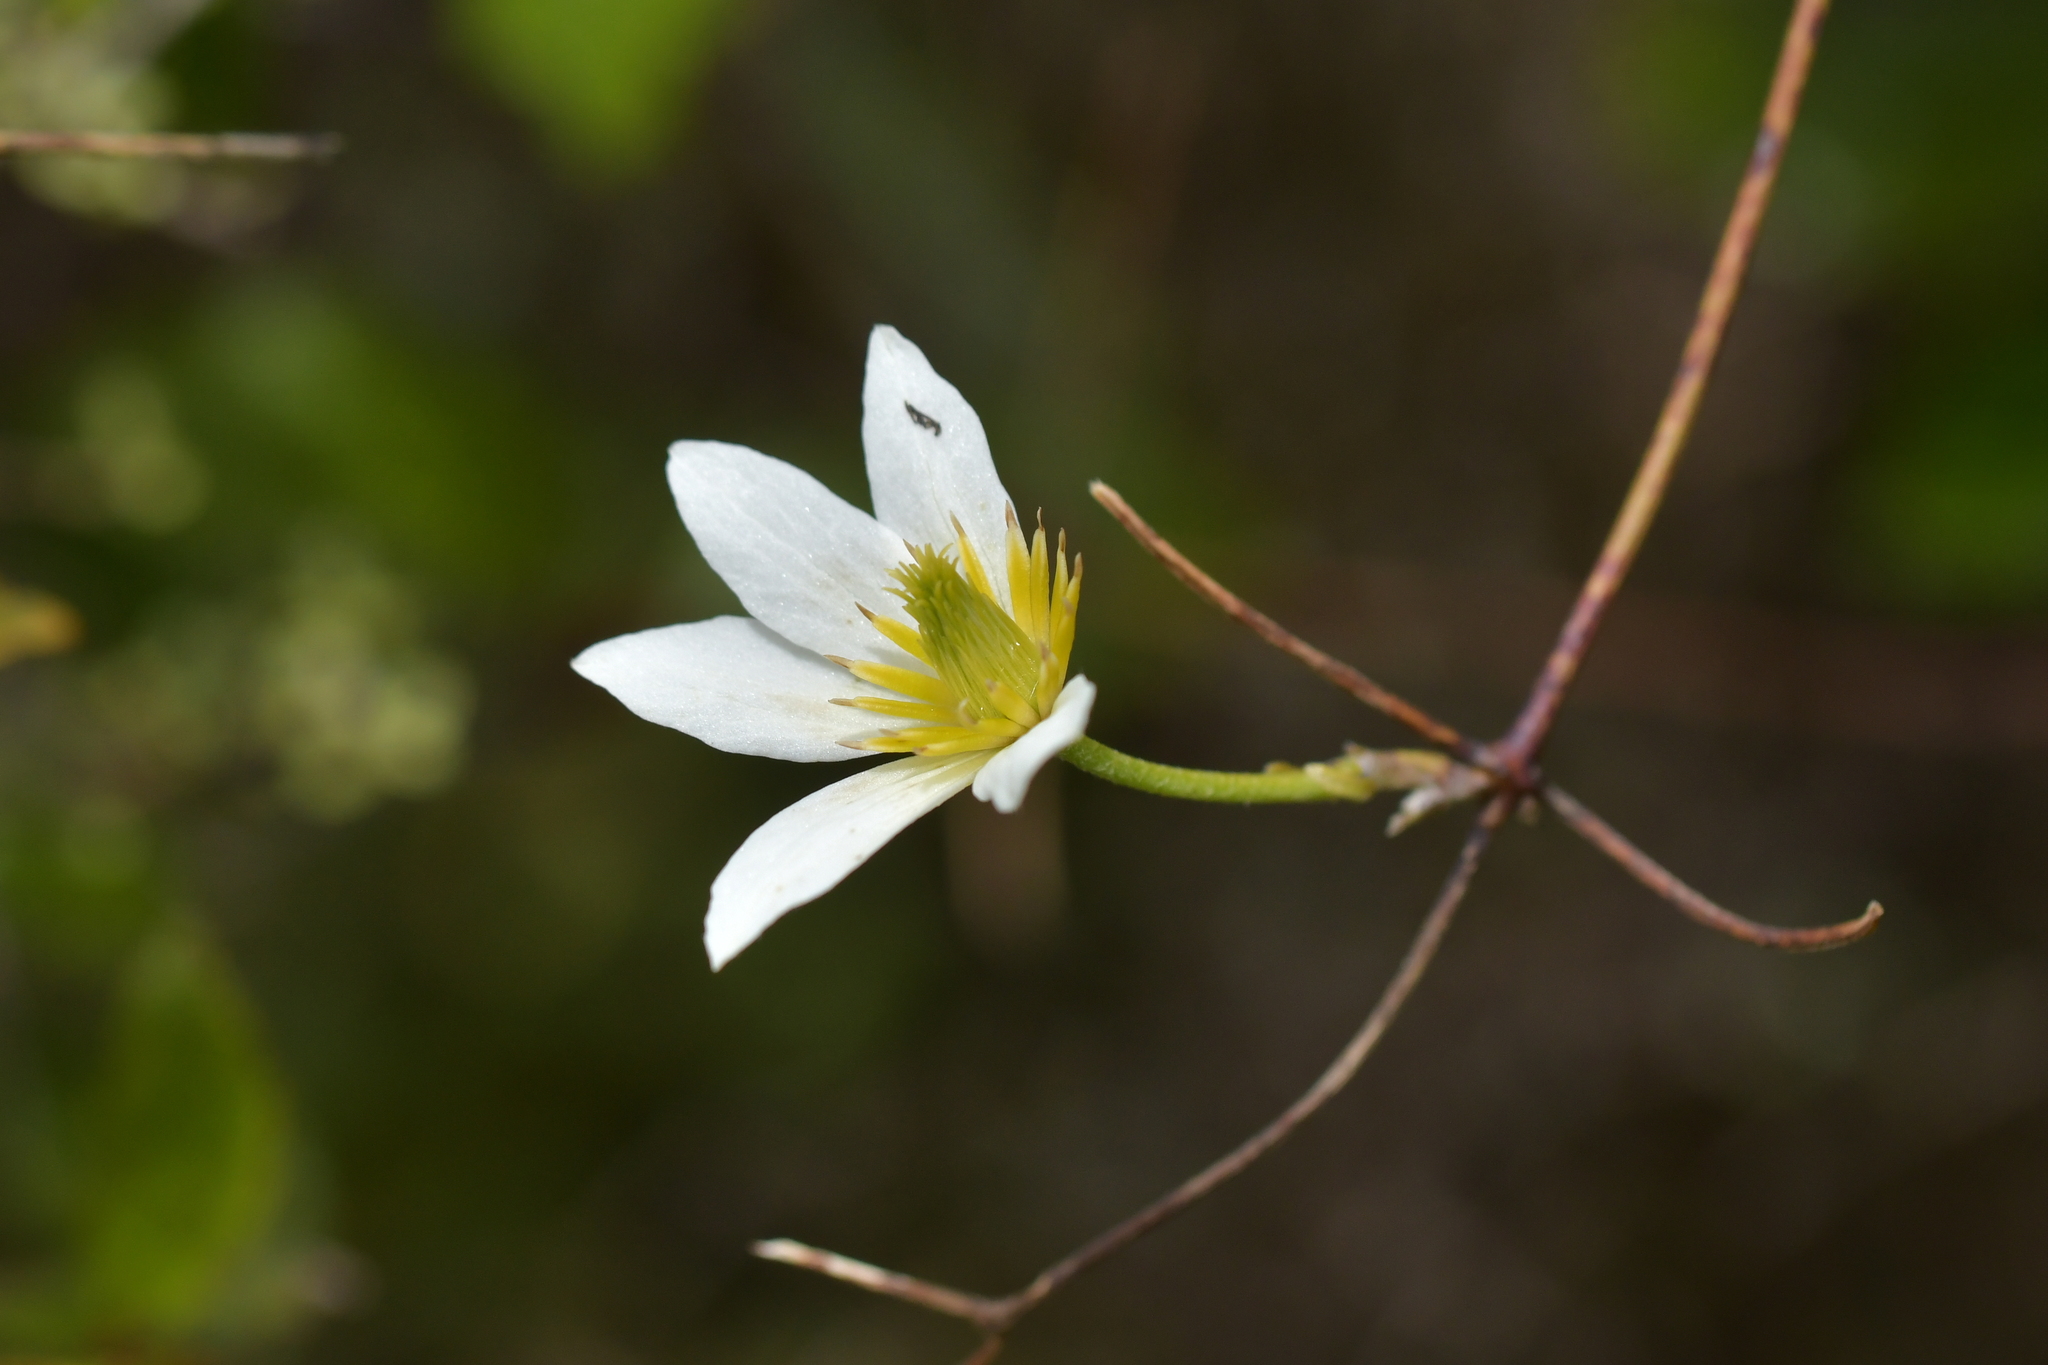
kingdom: Plantae
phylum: Tracheophyta
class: Magnoliopsida
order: Ranunculales
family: Ranunculaceae
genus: Clematis
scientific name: Clematis paniculata
